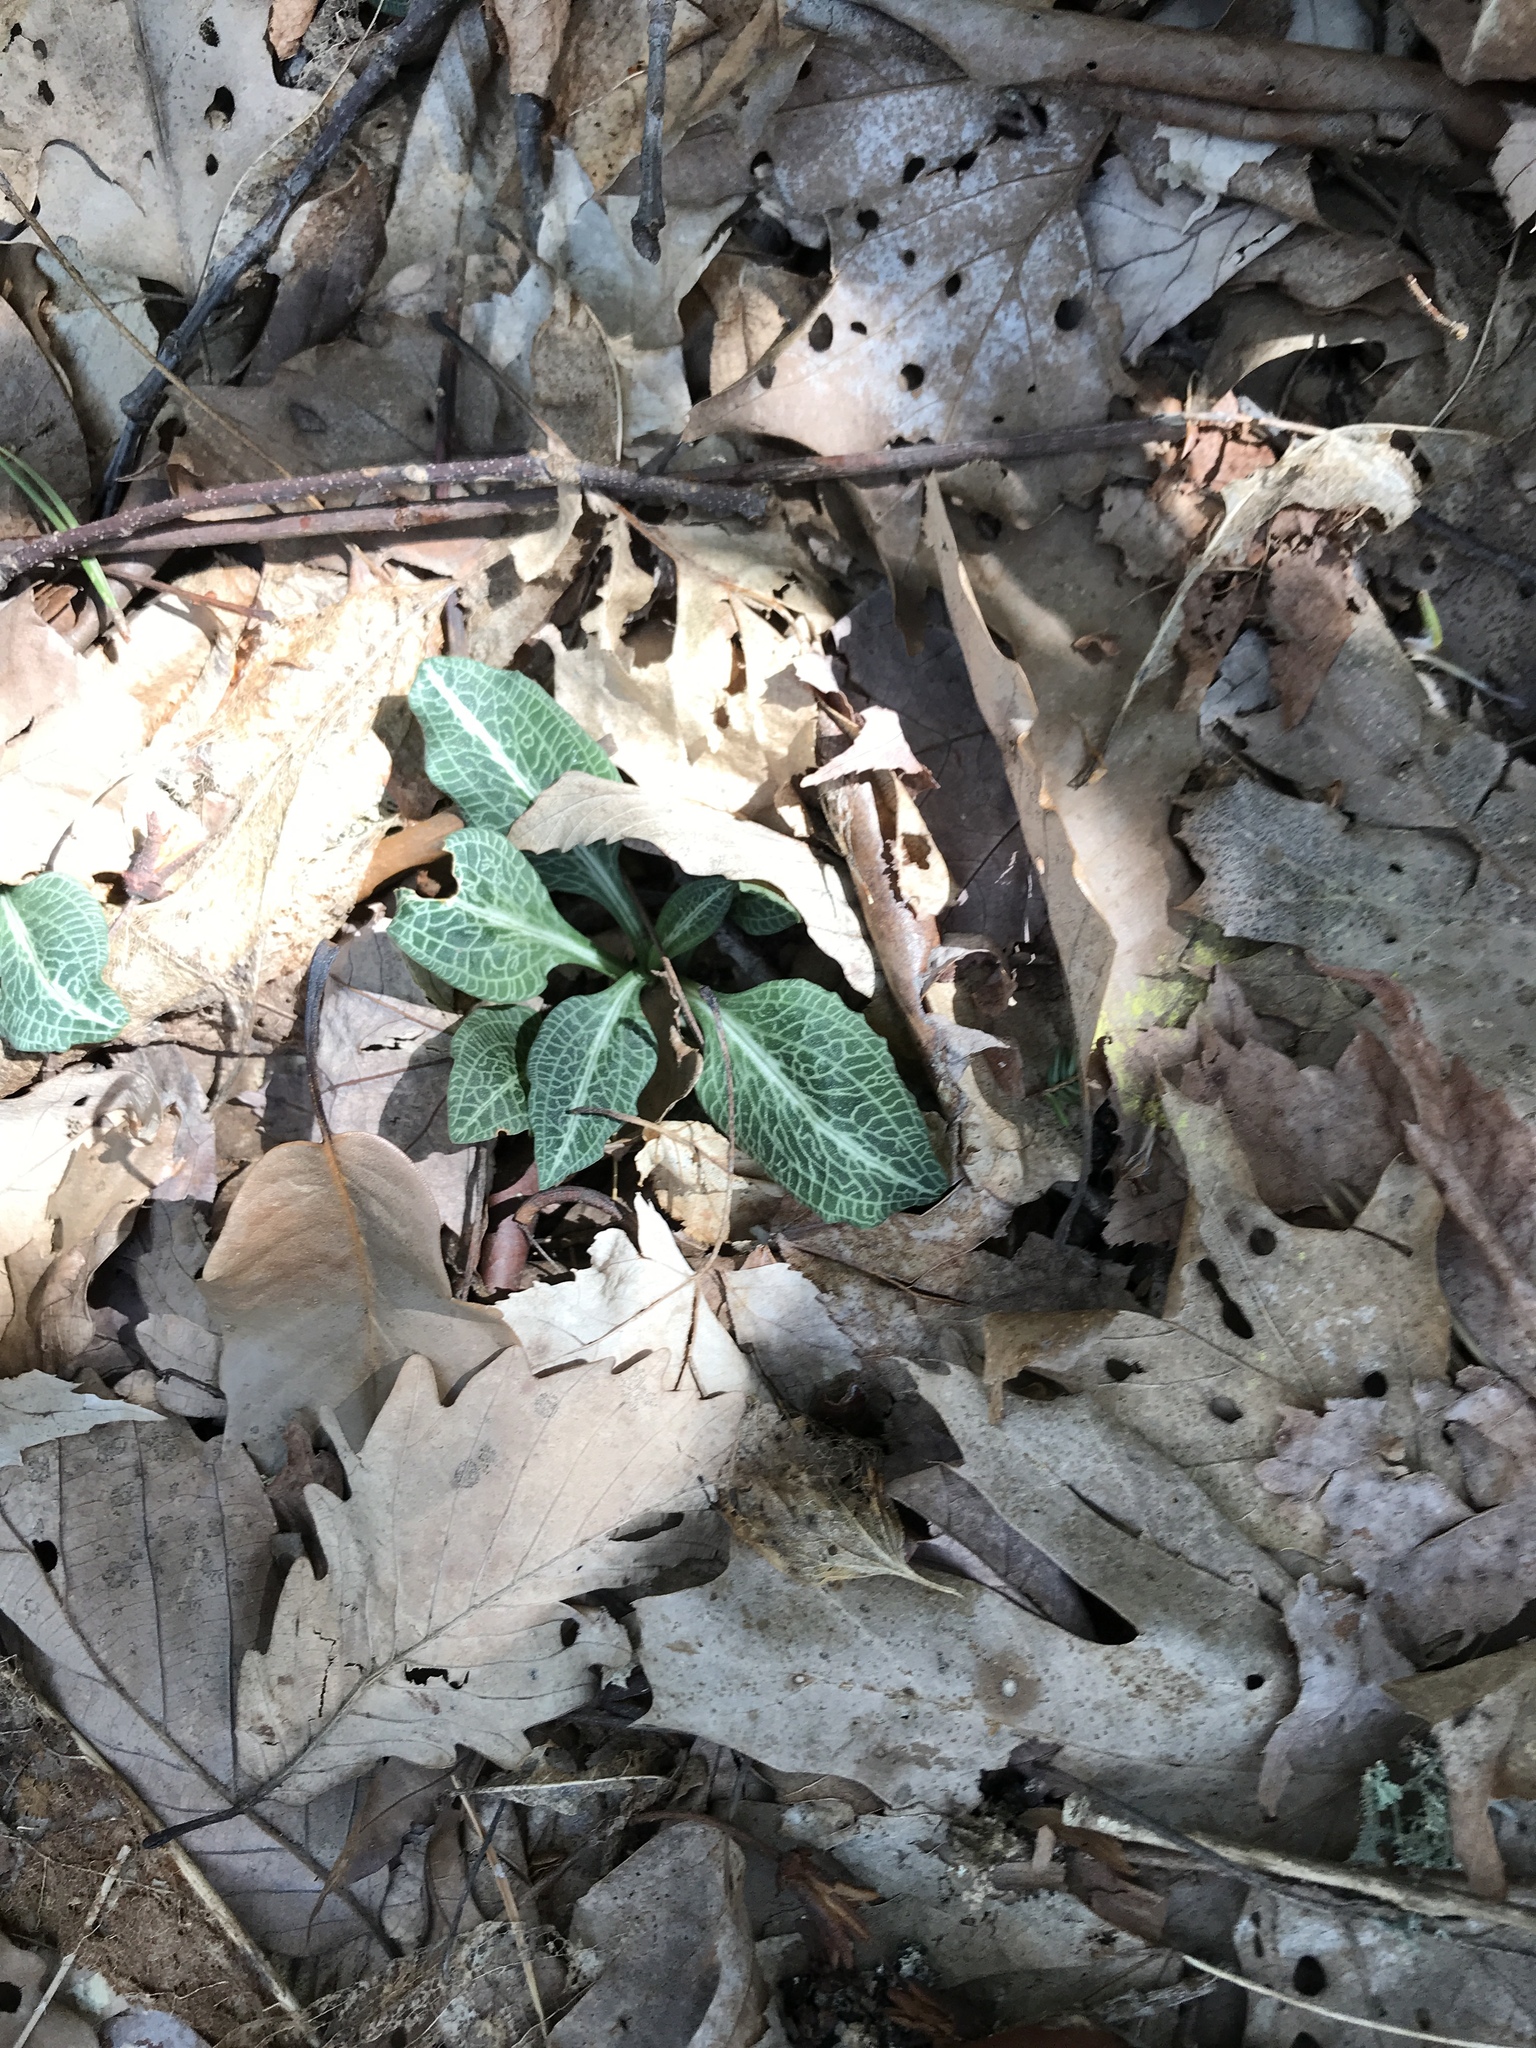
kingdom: Plantae
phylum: Tracheophyta
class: Liliopsida
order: Asparagales
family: Orchidaceae
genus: Goodyera
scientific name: Goodyera pubescens
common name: Downy rattlesnake-plantain
